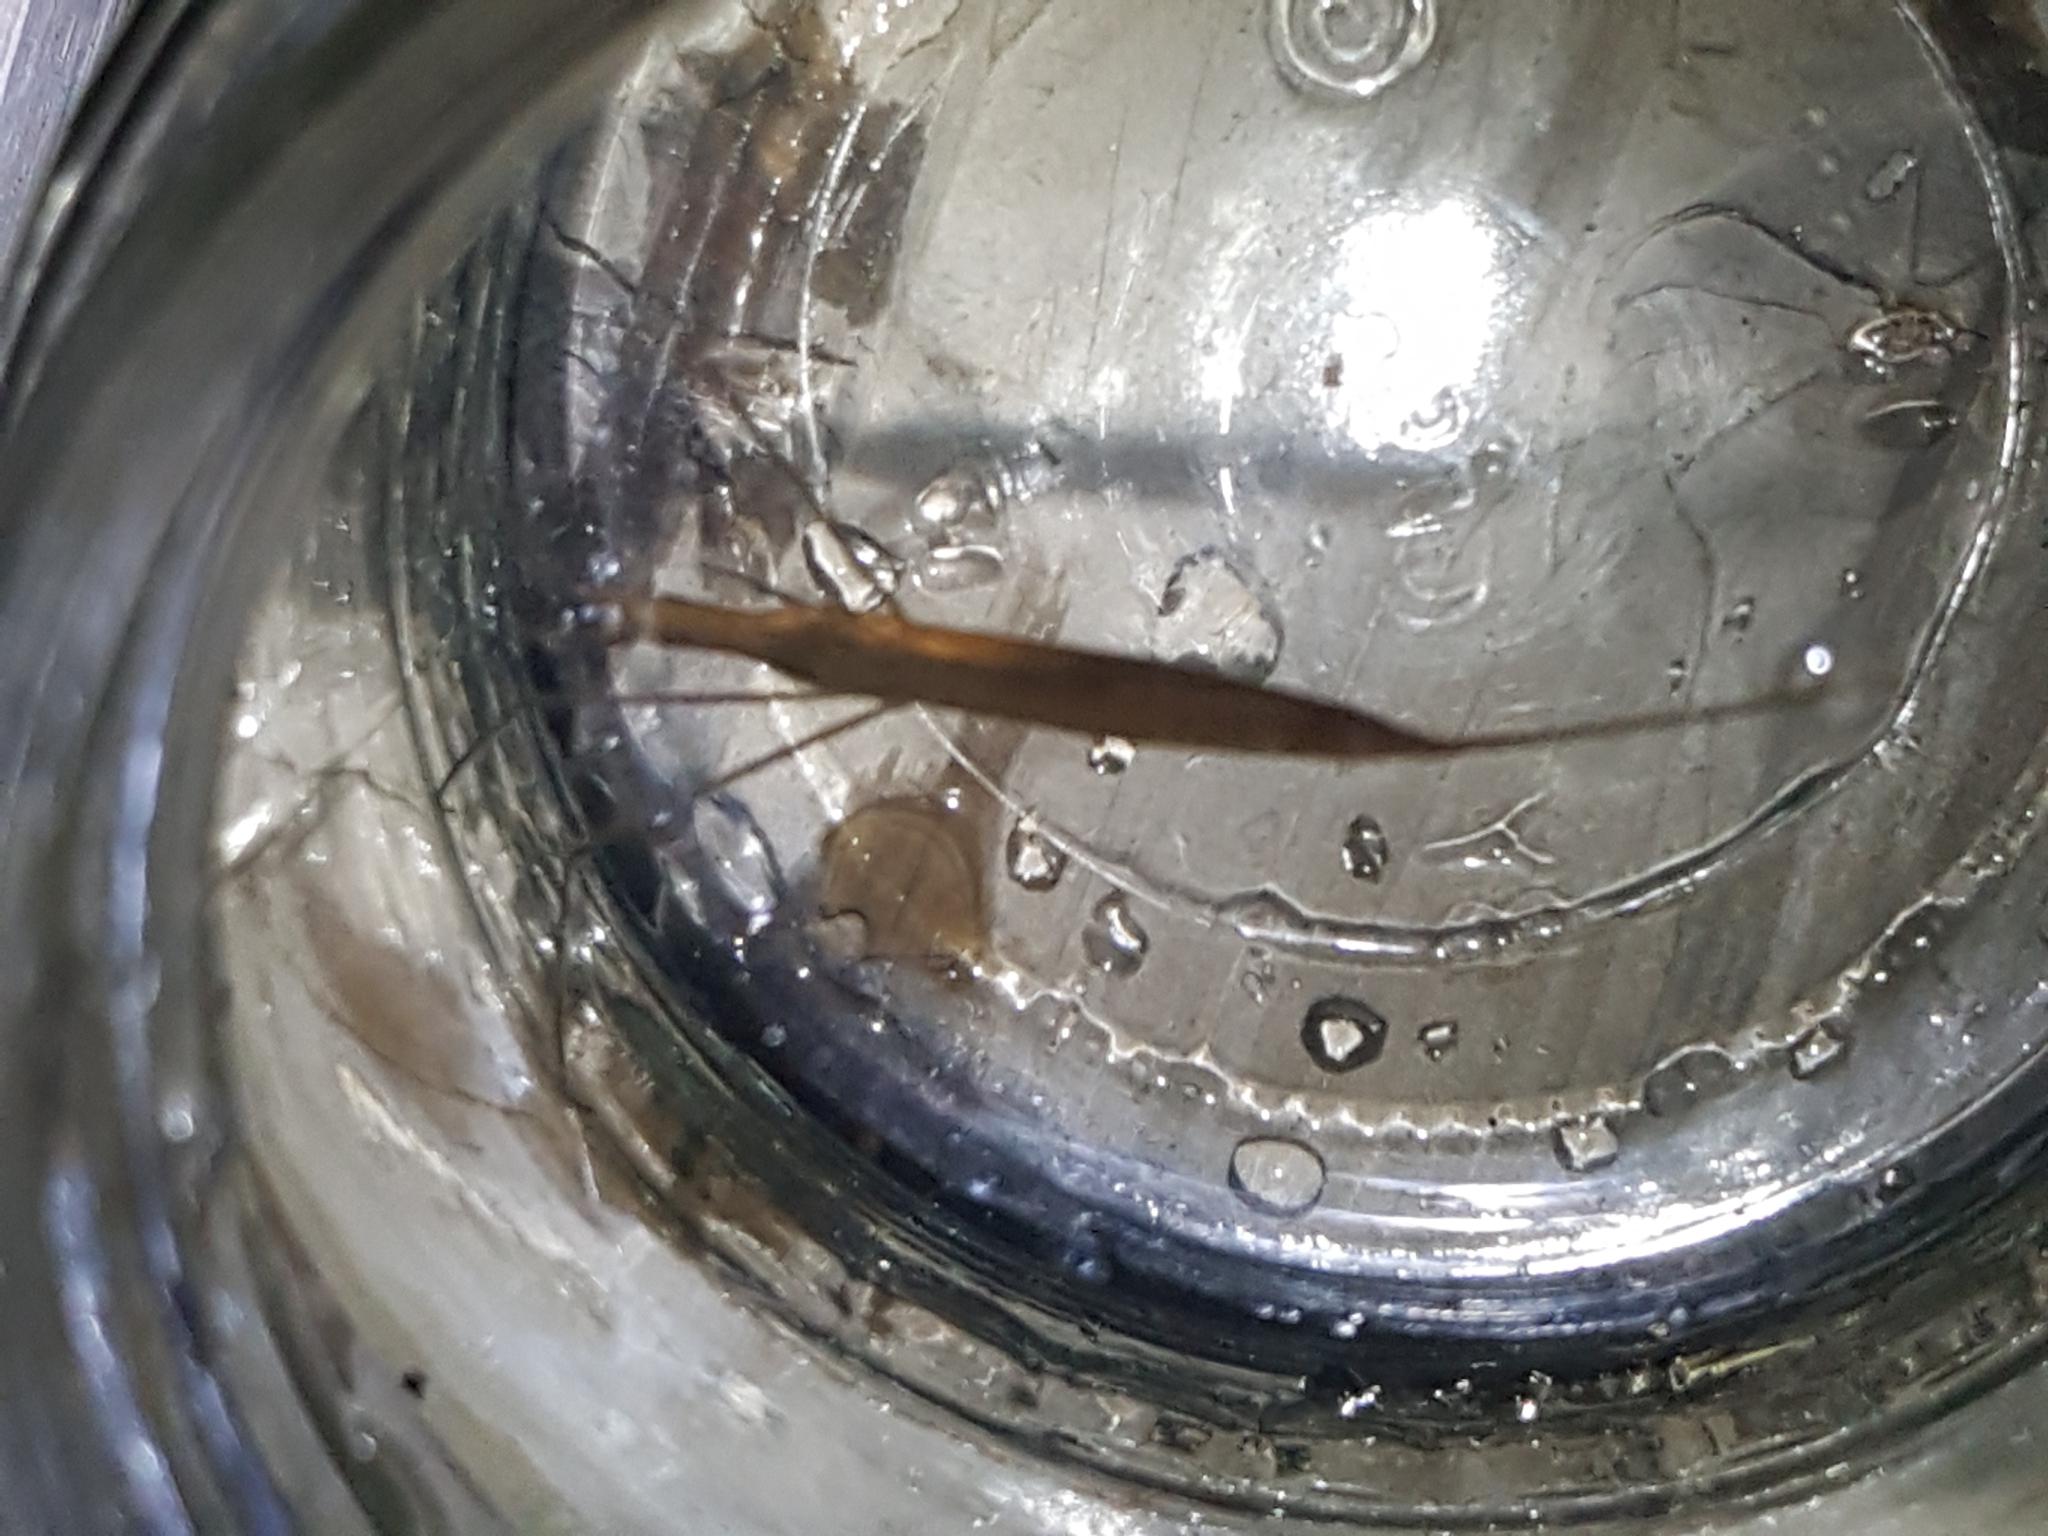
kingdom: Animalia
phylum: Arthropoda
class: Insecta
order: Hemiptera
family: Nepidae
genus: Ranatra
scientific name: Ranatra linearis
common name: Water stick insect
